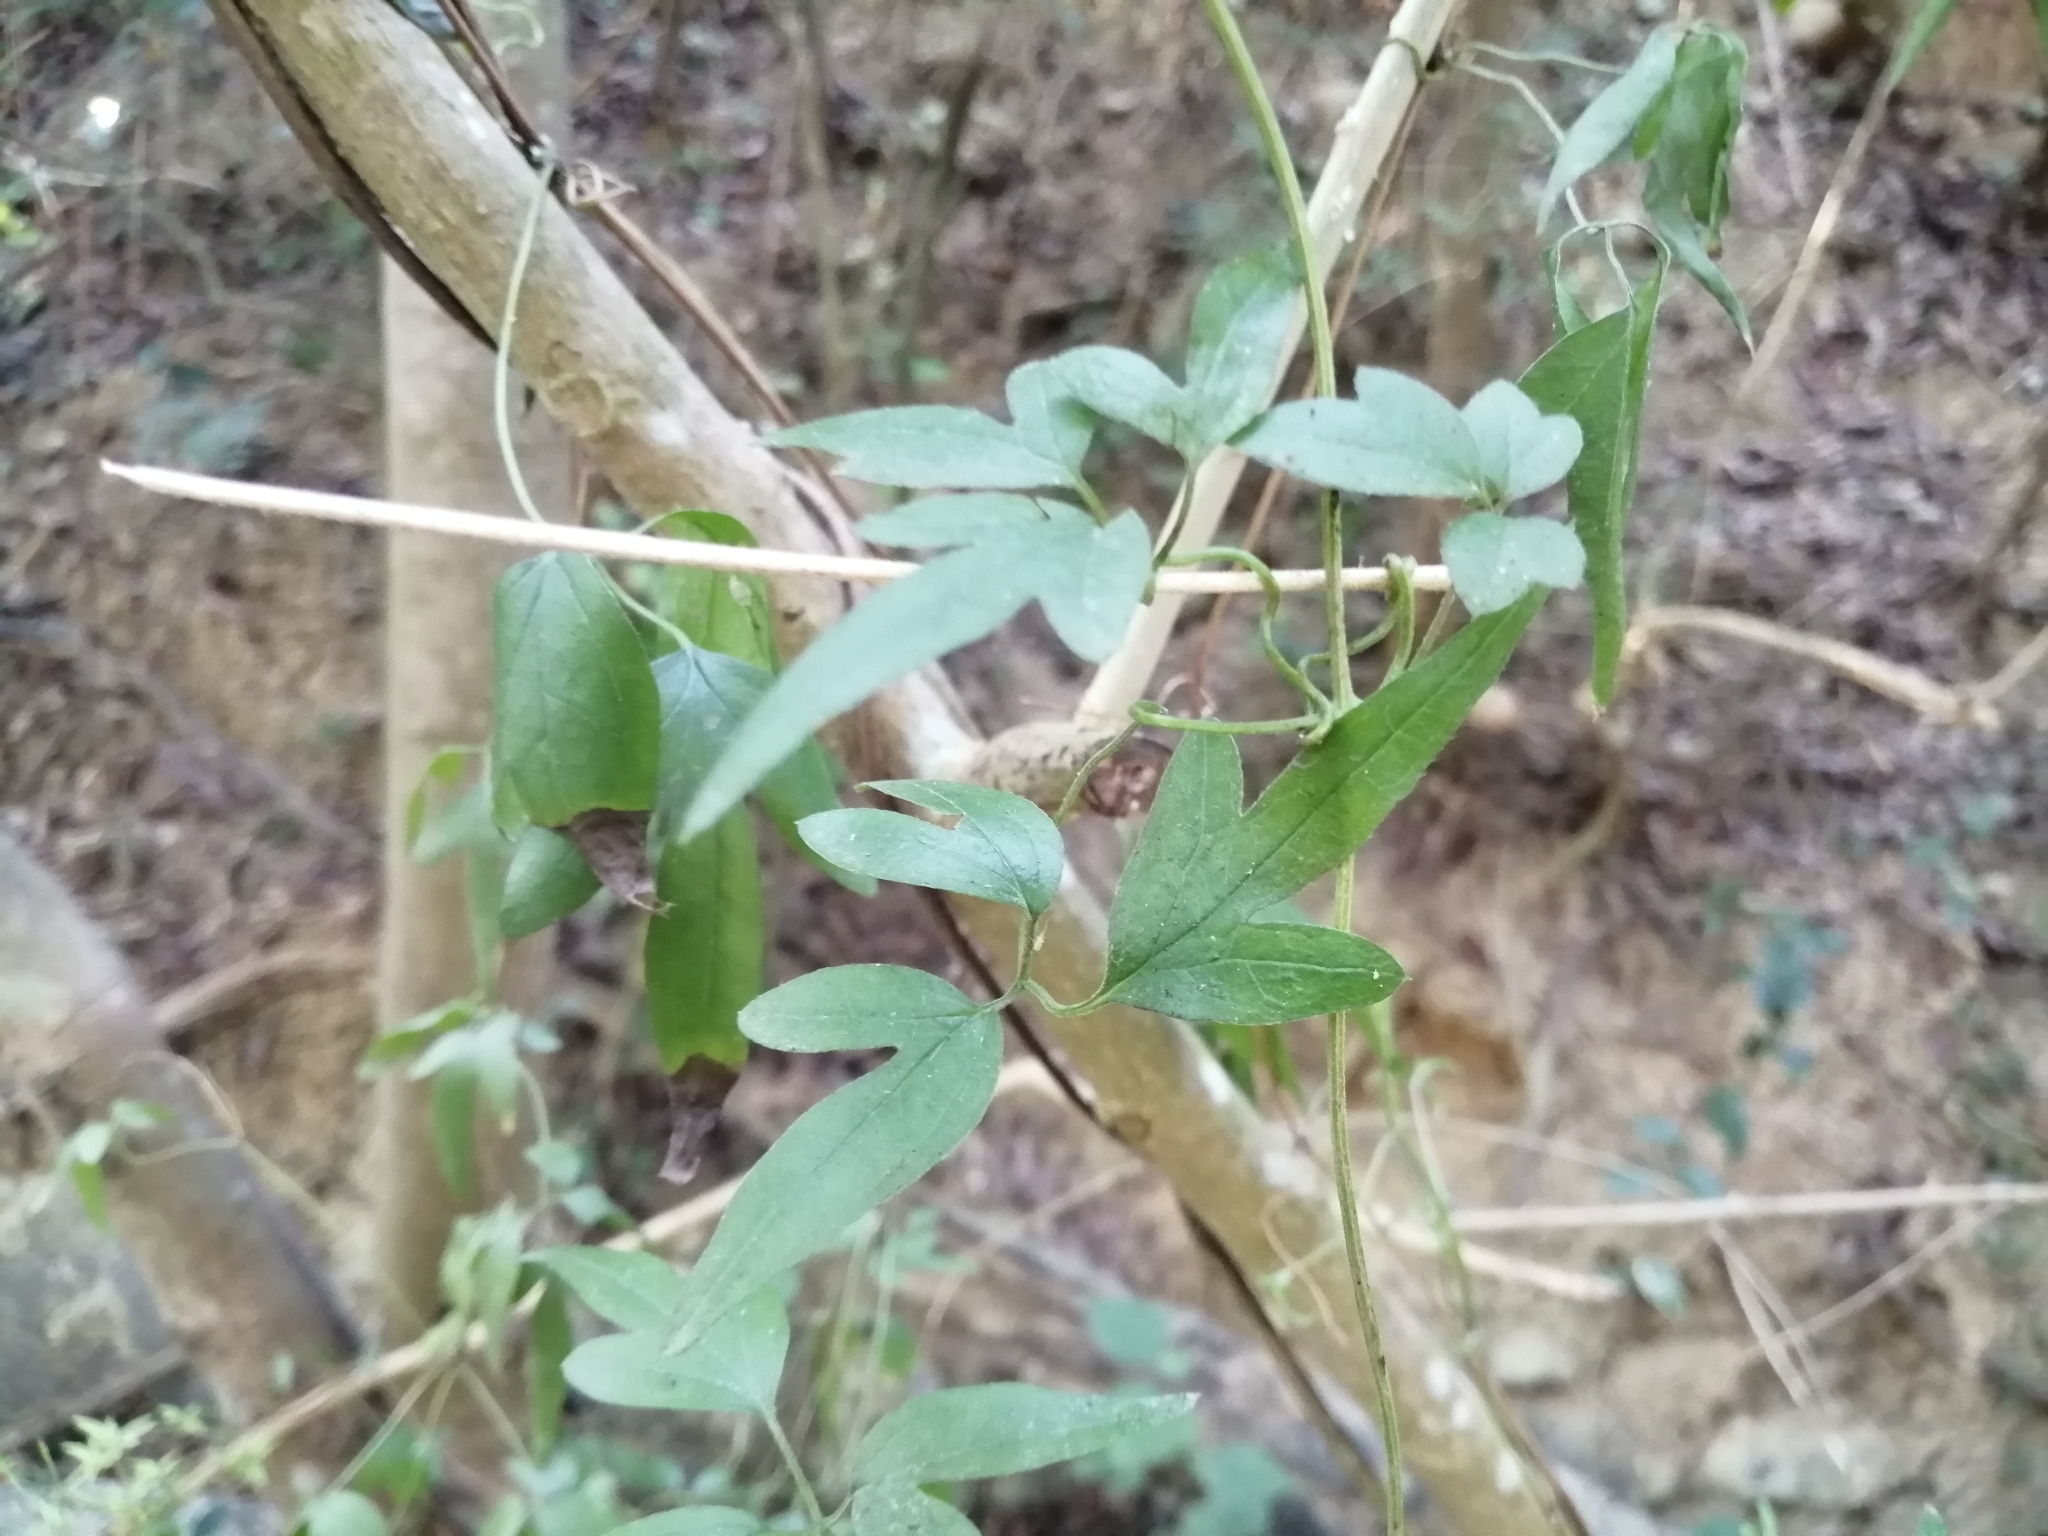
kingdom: Plantae
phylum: Tracheophyta
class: Magnoliopsida
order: Ranunculales
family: Ranunculaceae
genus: Clematis
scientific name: Clematis formosana
